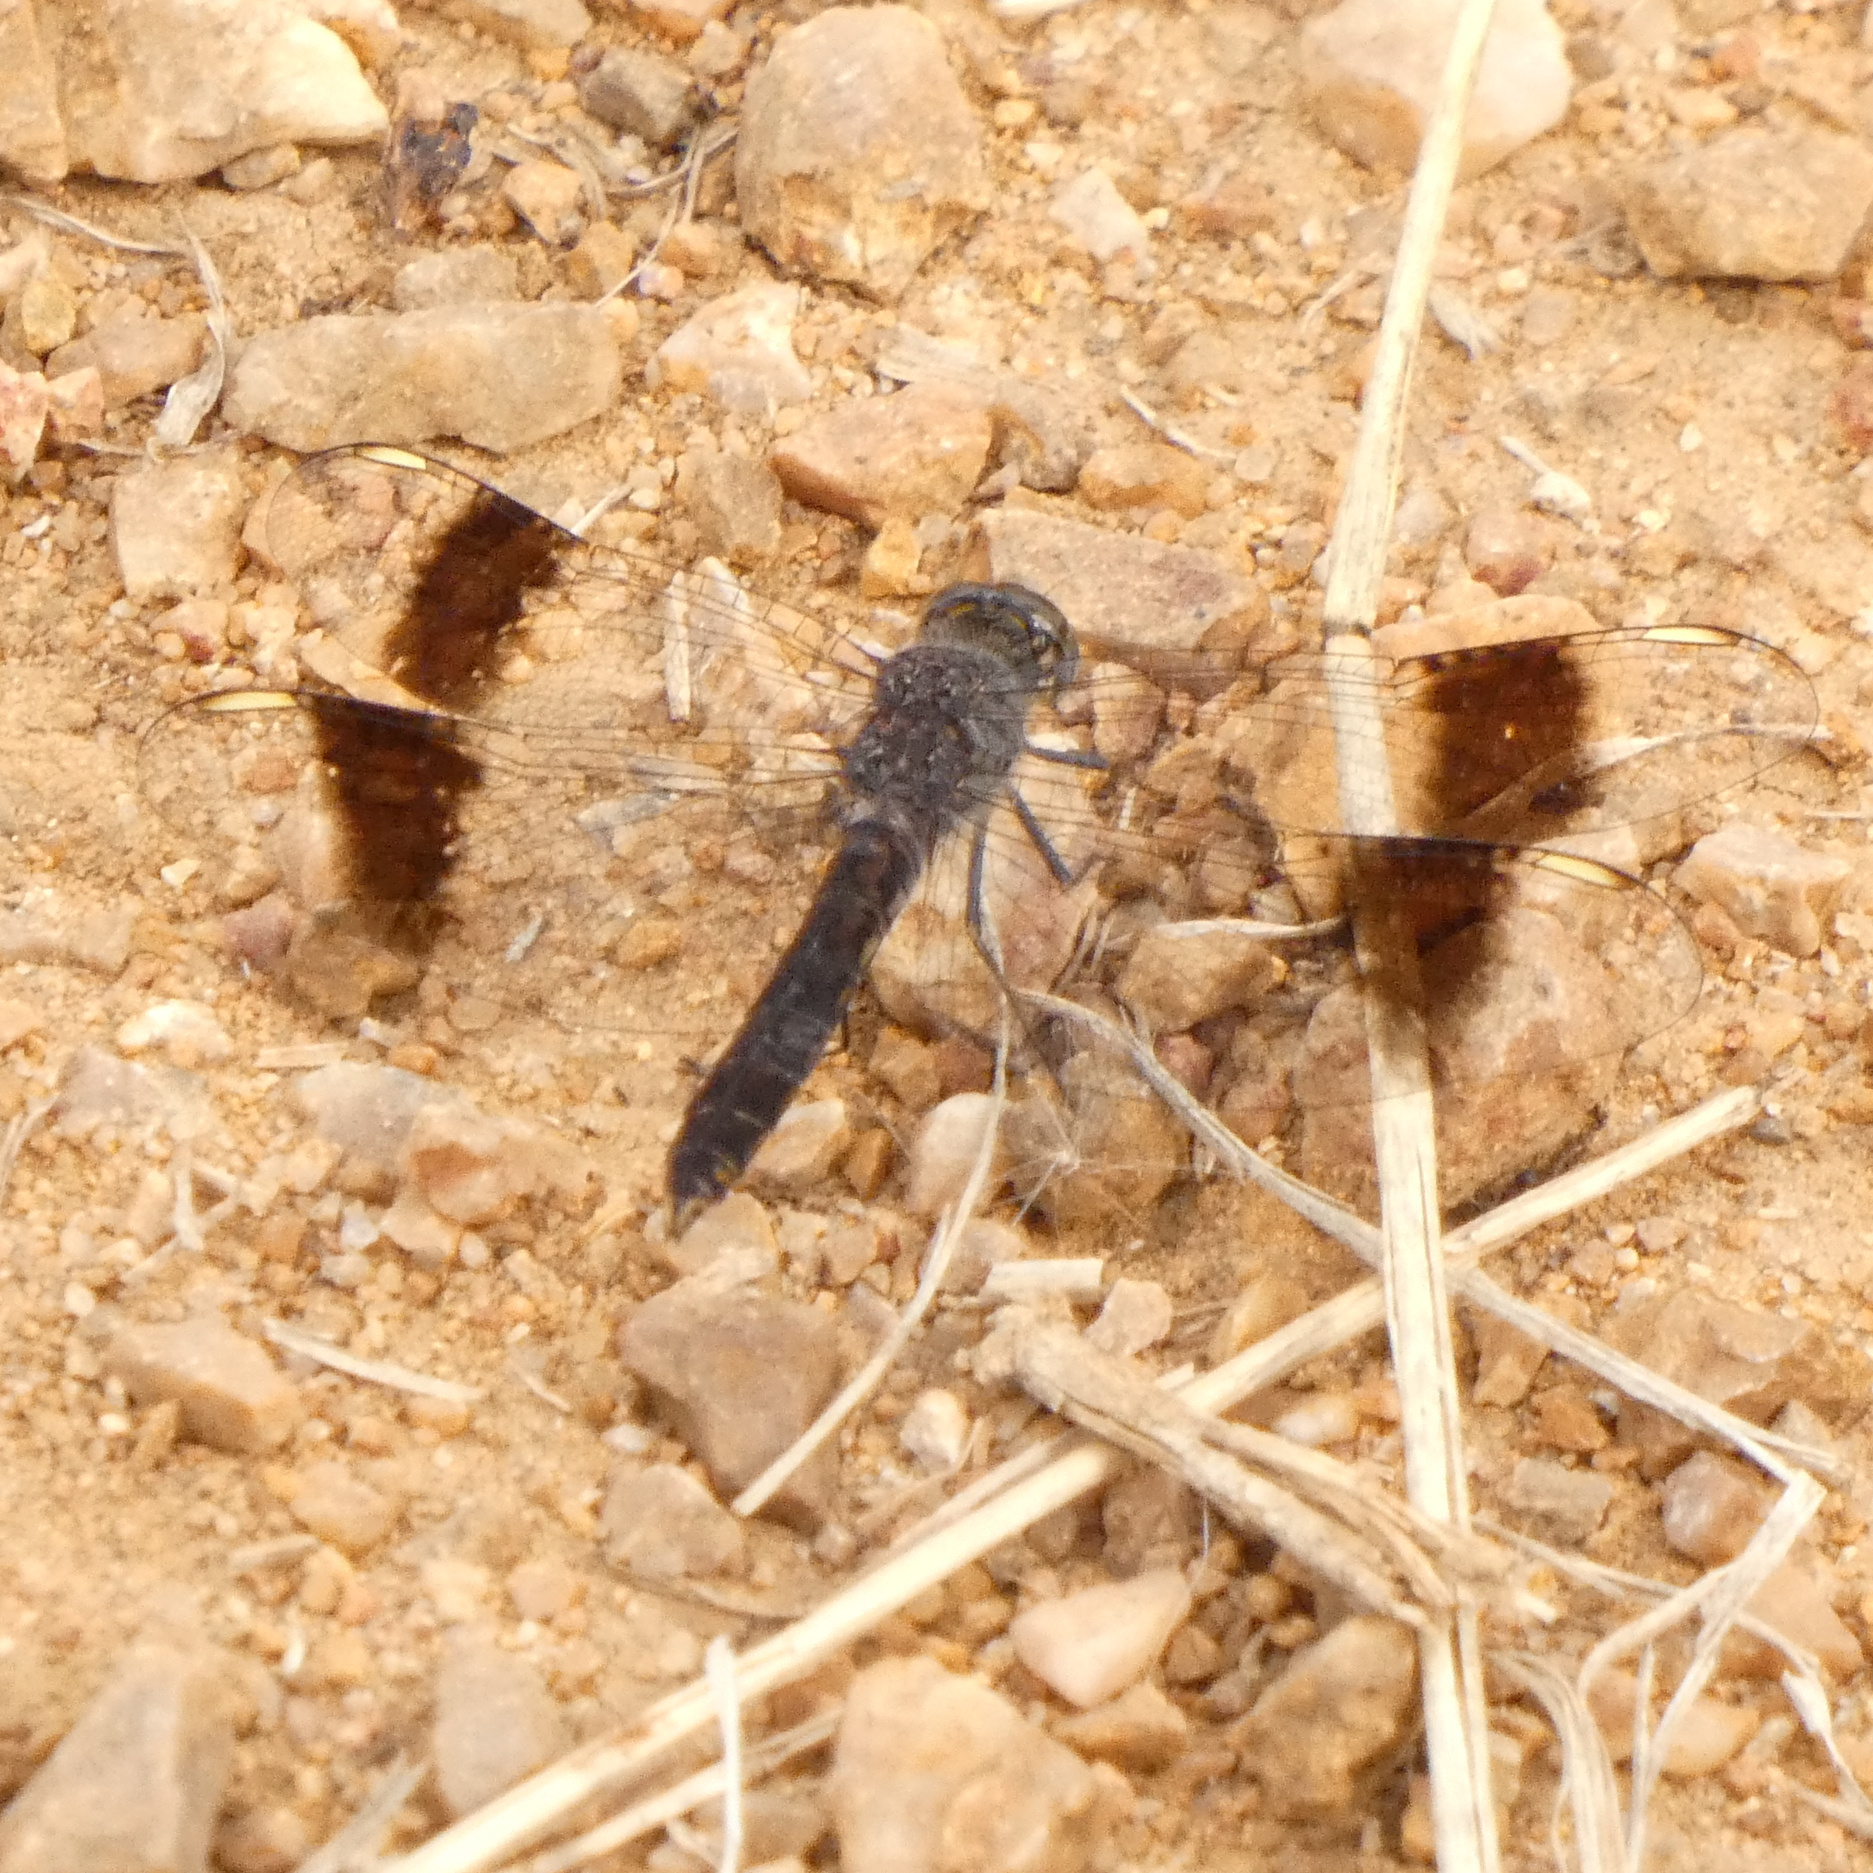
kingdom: Animalia
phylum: Arthropoda
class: Insecta
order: Odonata
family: Libellulidae
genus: Brachythemis
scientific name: Brachythemis leucosticta
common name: Banded groundling
